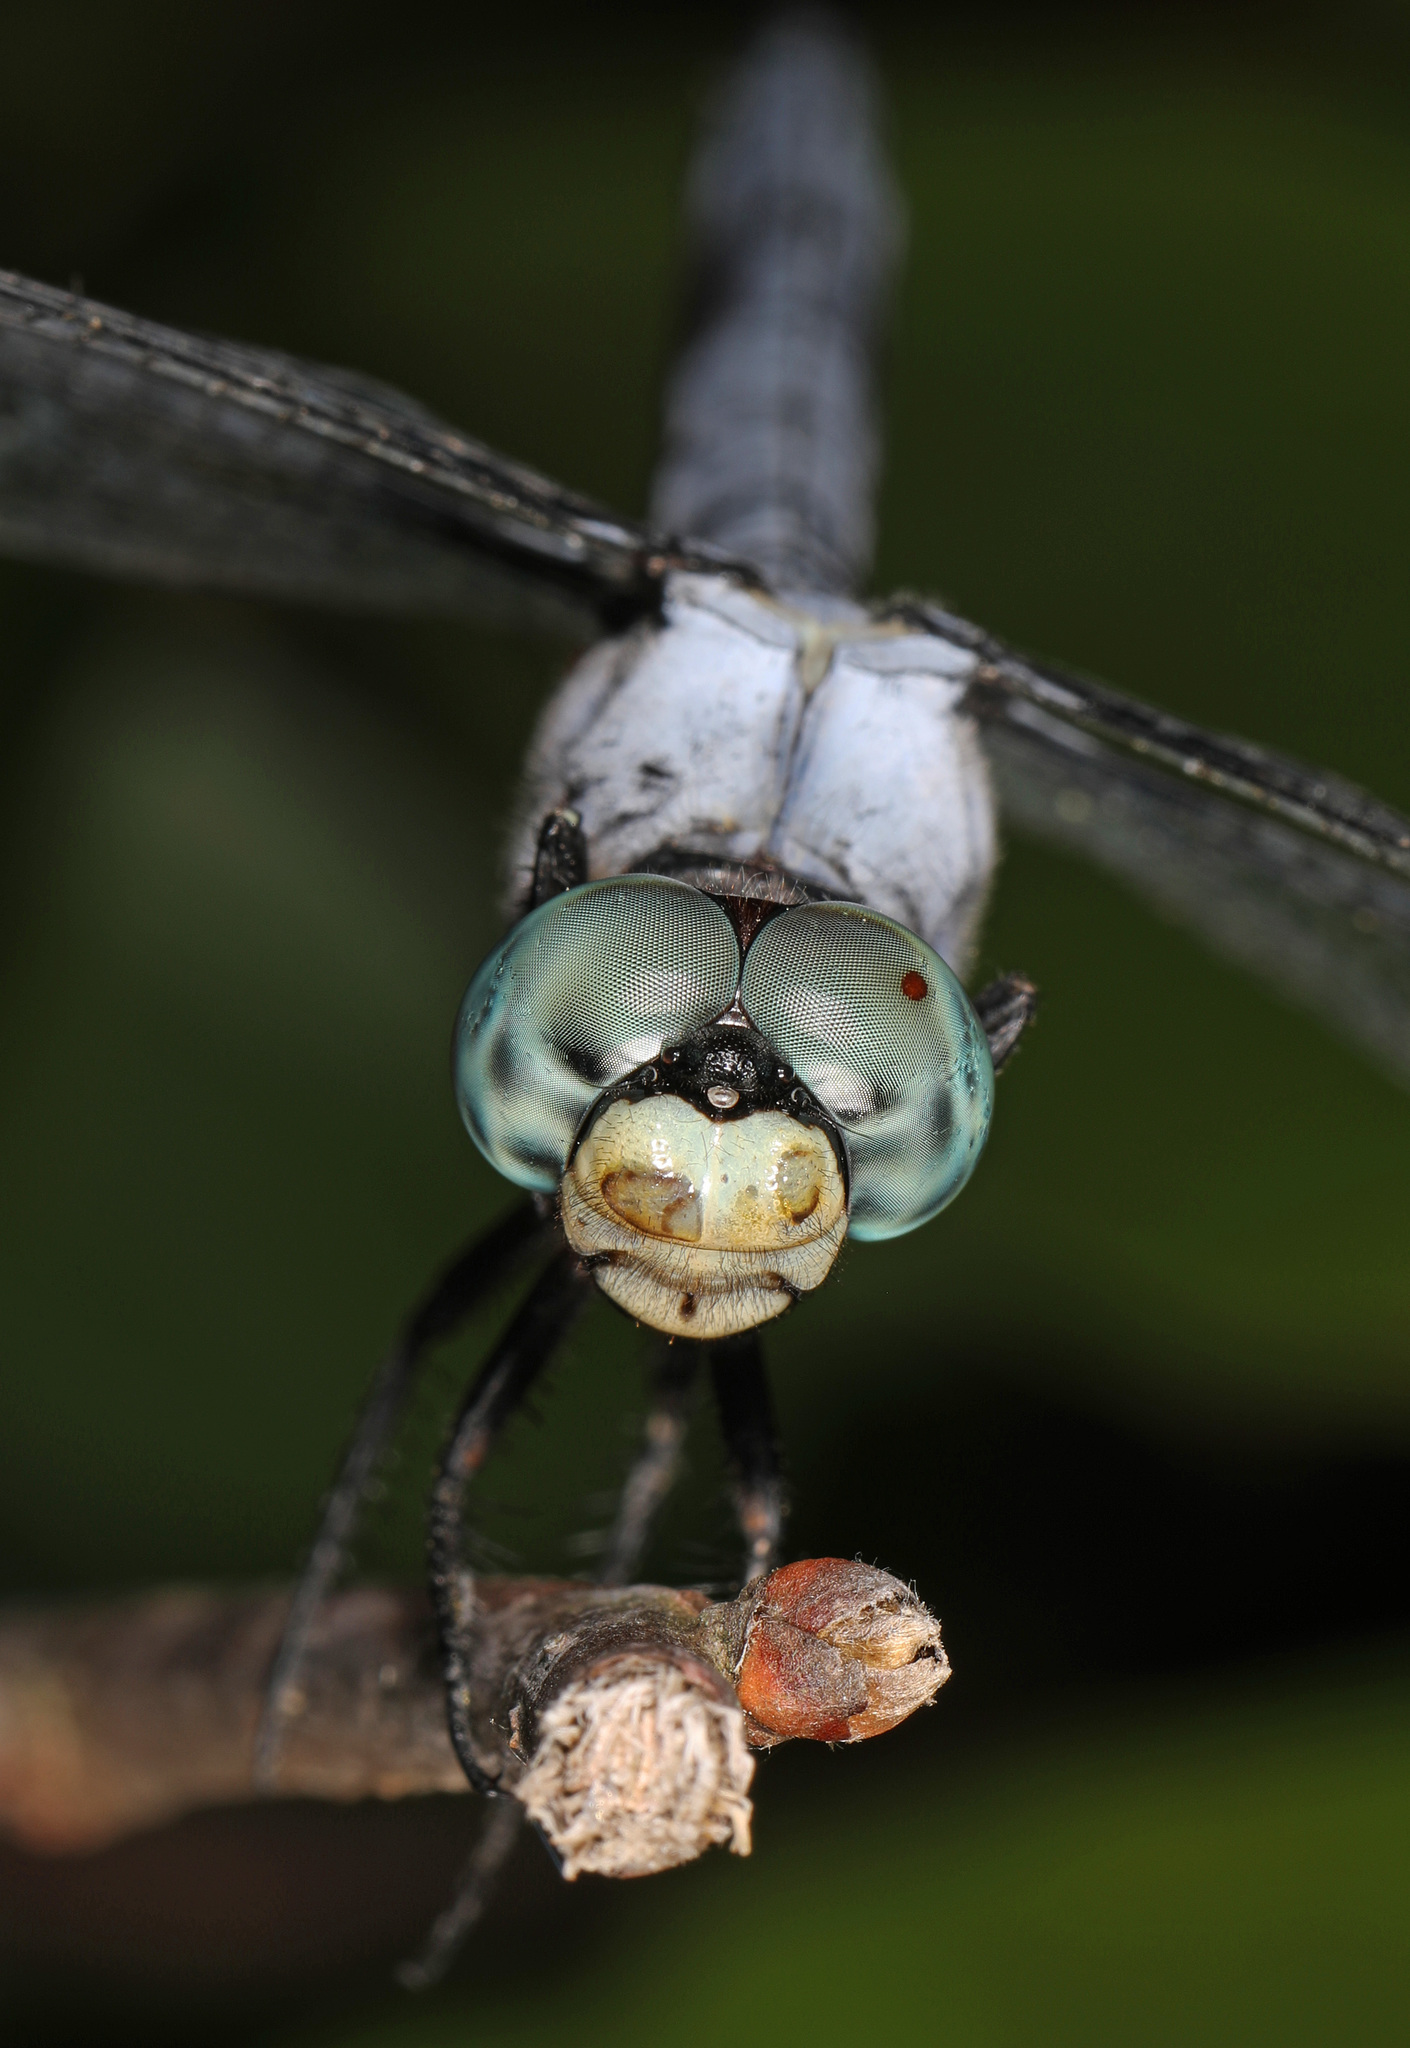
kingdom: Animalia
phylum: Arthropoda
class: Insecta
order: Odonata
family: Libellulidae
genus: Libellula
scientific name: Libellula vibrans
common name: Great blue skimmer
